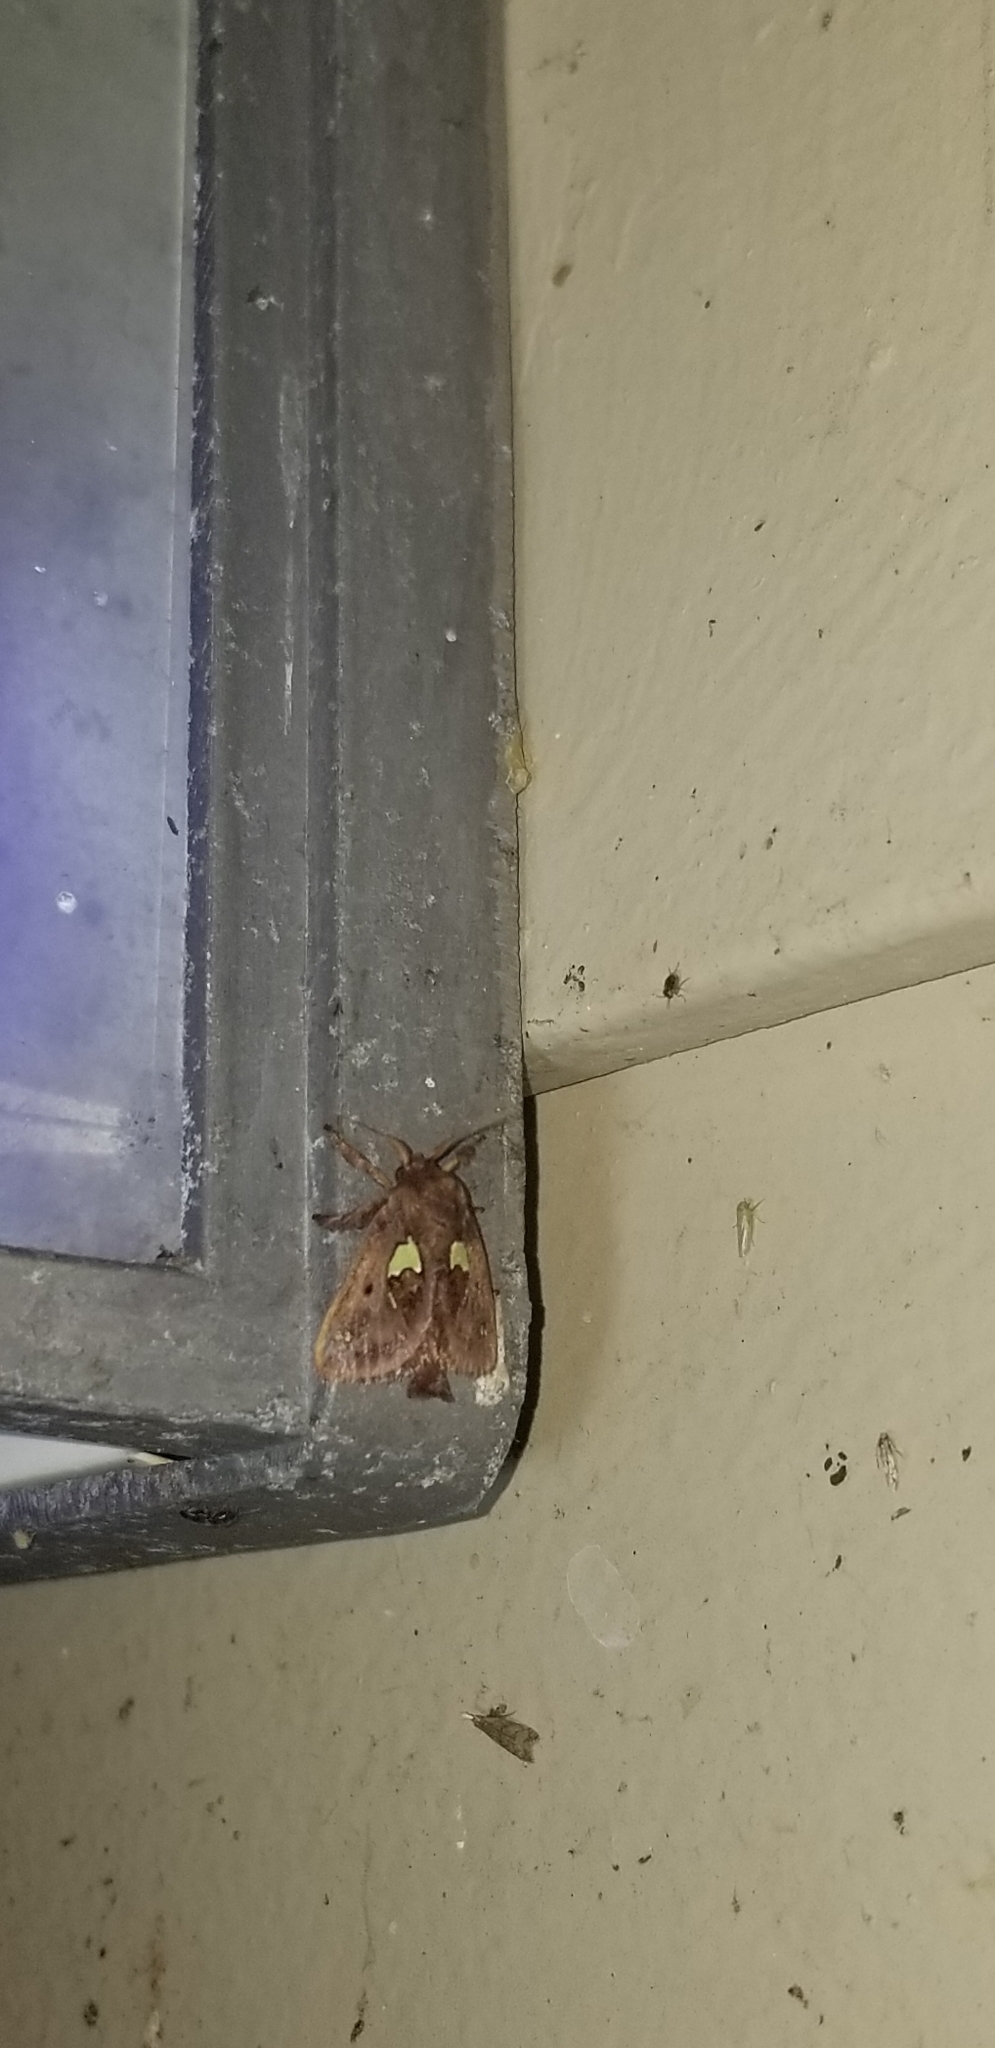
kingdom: Animalia
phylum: Arthropoda
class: Insecta
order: Lepidoptera
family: Limacodidae
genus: Euclea
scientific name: Euclea delphinii
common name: Spiny oak-slug moth
